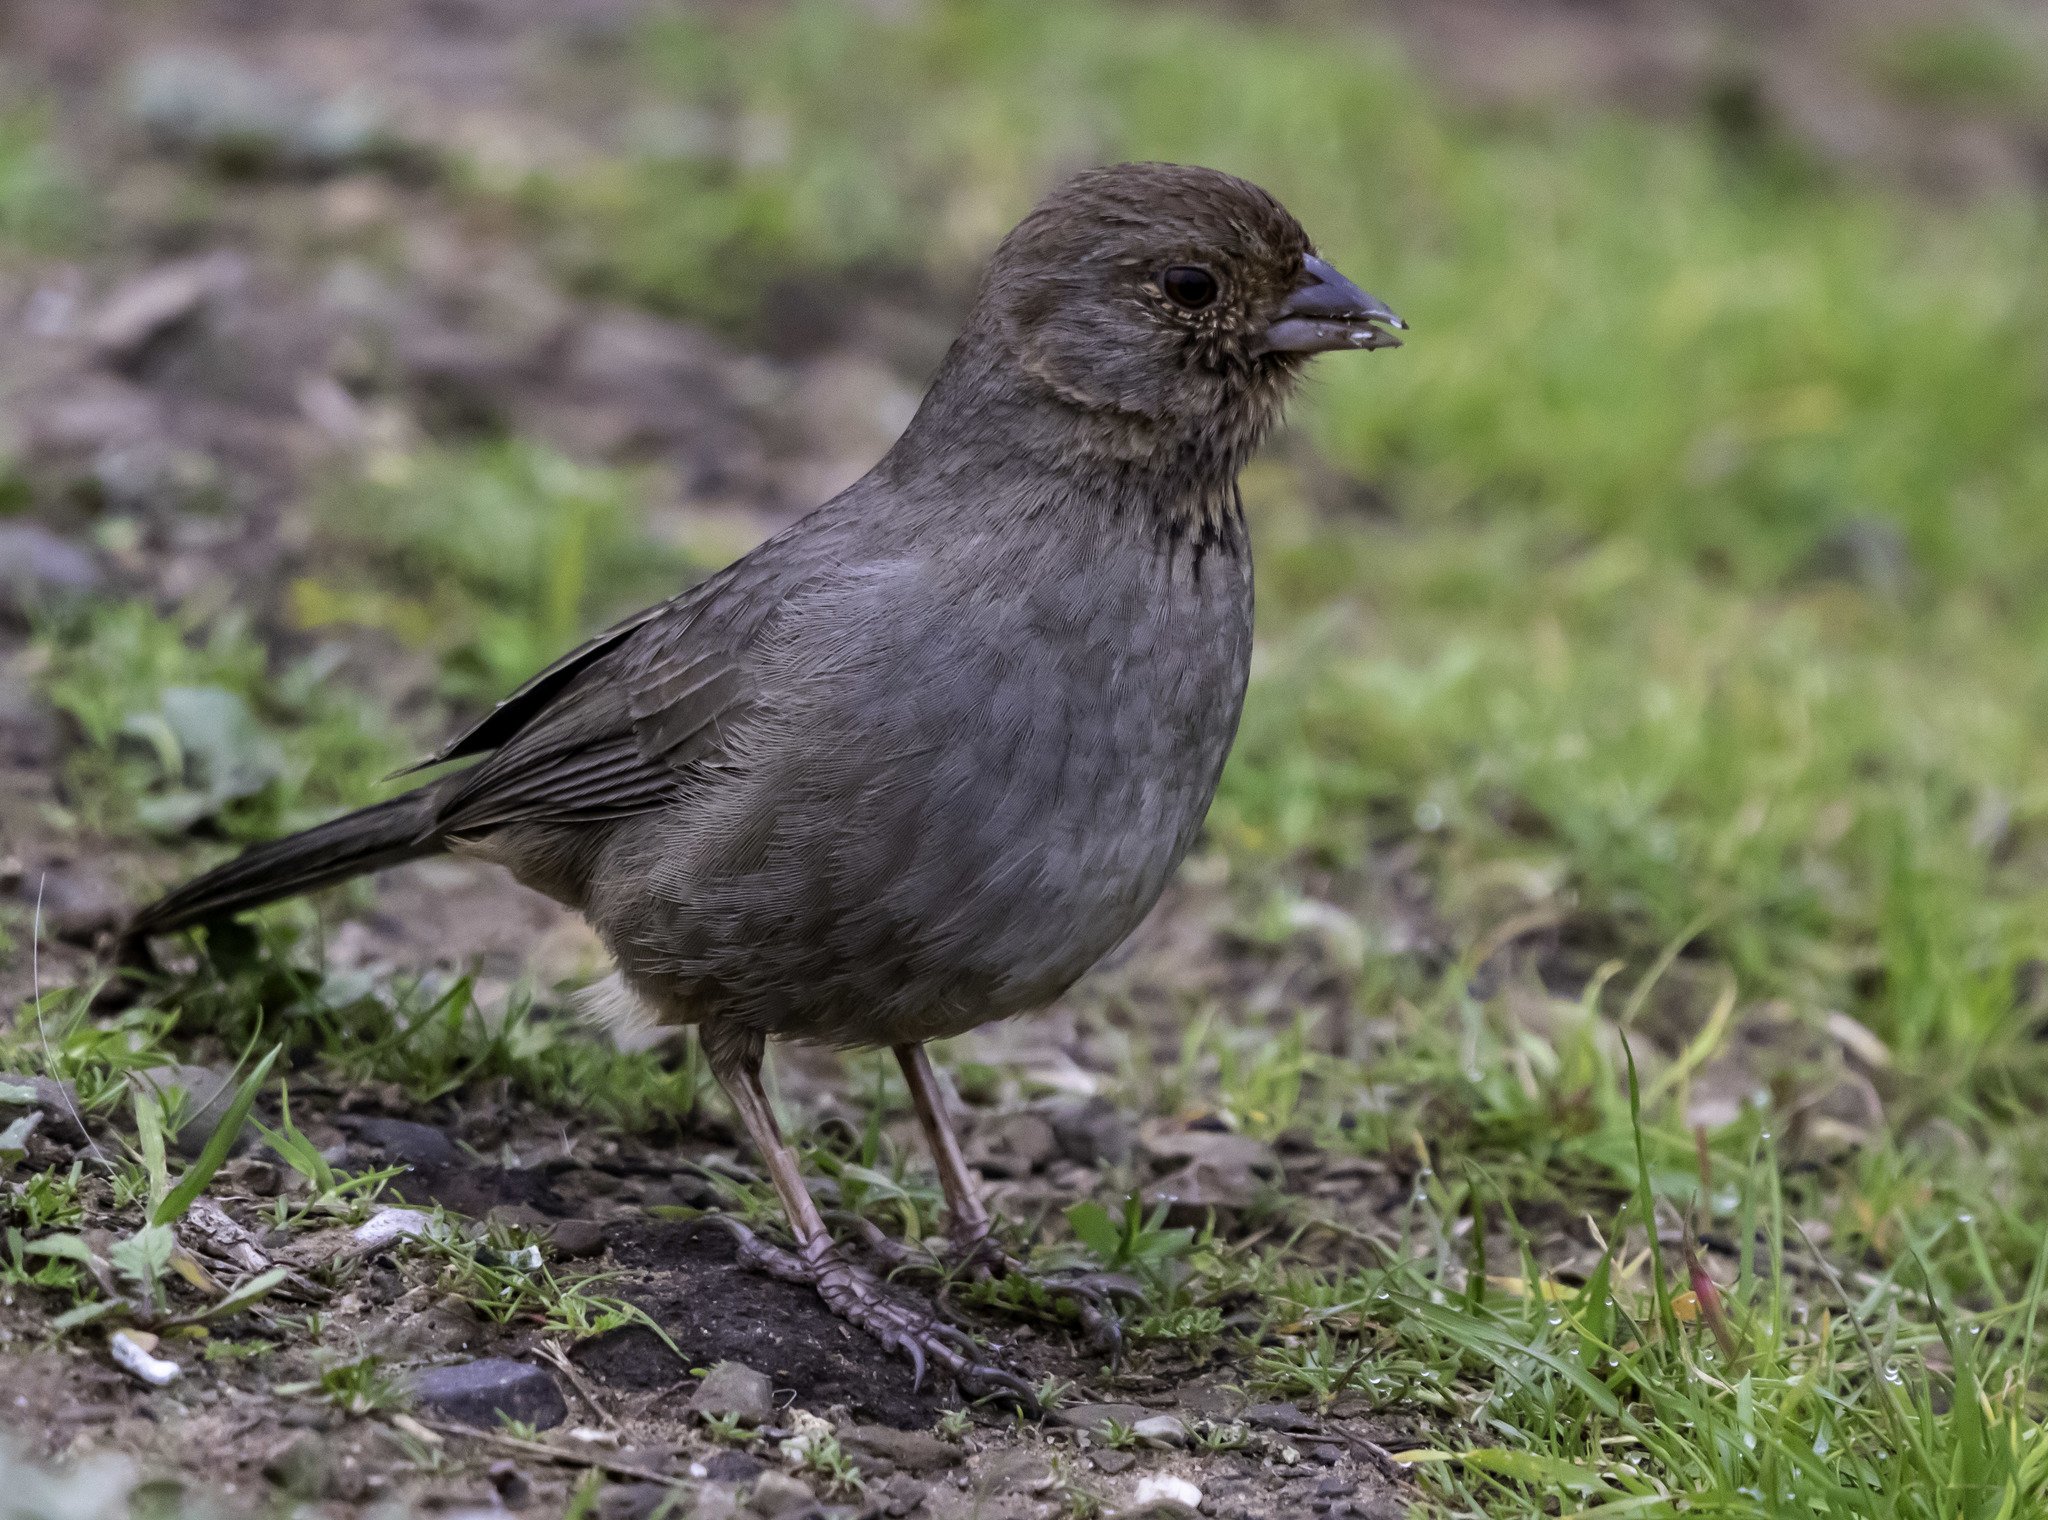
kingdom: Animalia
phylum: Chordata
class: Aves
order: Passeriformes
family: Passerellidae
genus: Melozone
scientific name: Melozone crissalis
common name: California towhee
